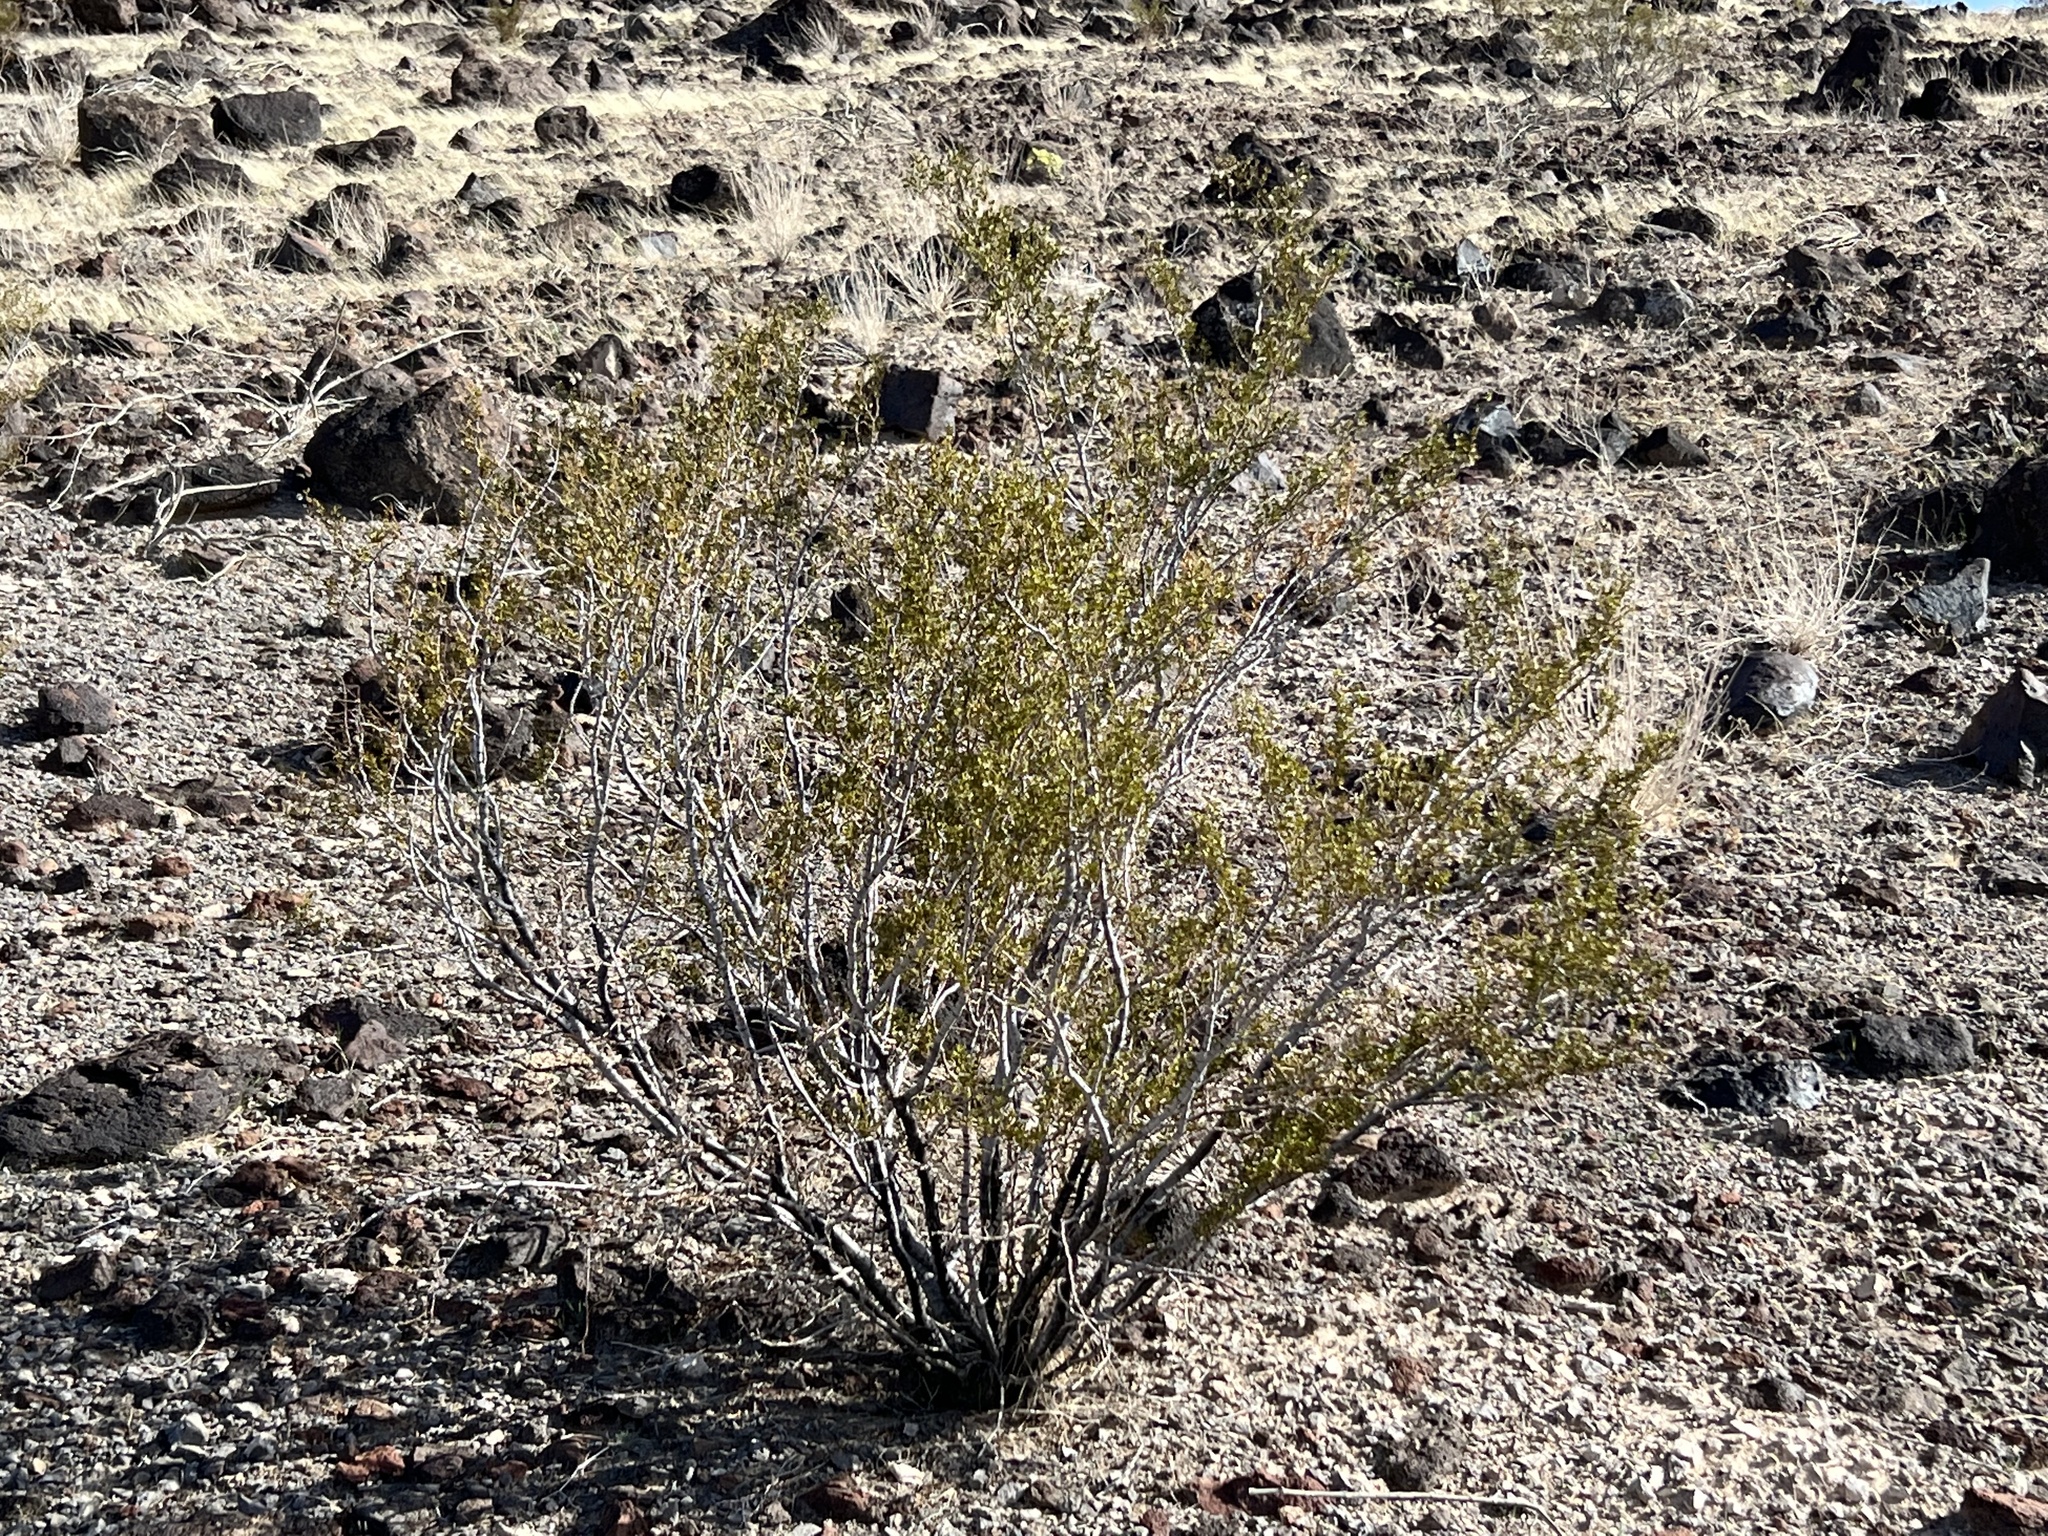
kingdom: Plantae
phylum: Tracheophyta
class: Magnoliopsida
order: Zygophyllales
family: Zygophyllaceae
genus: Larrea
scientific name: Larrea tridentata
